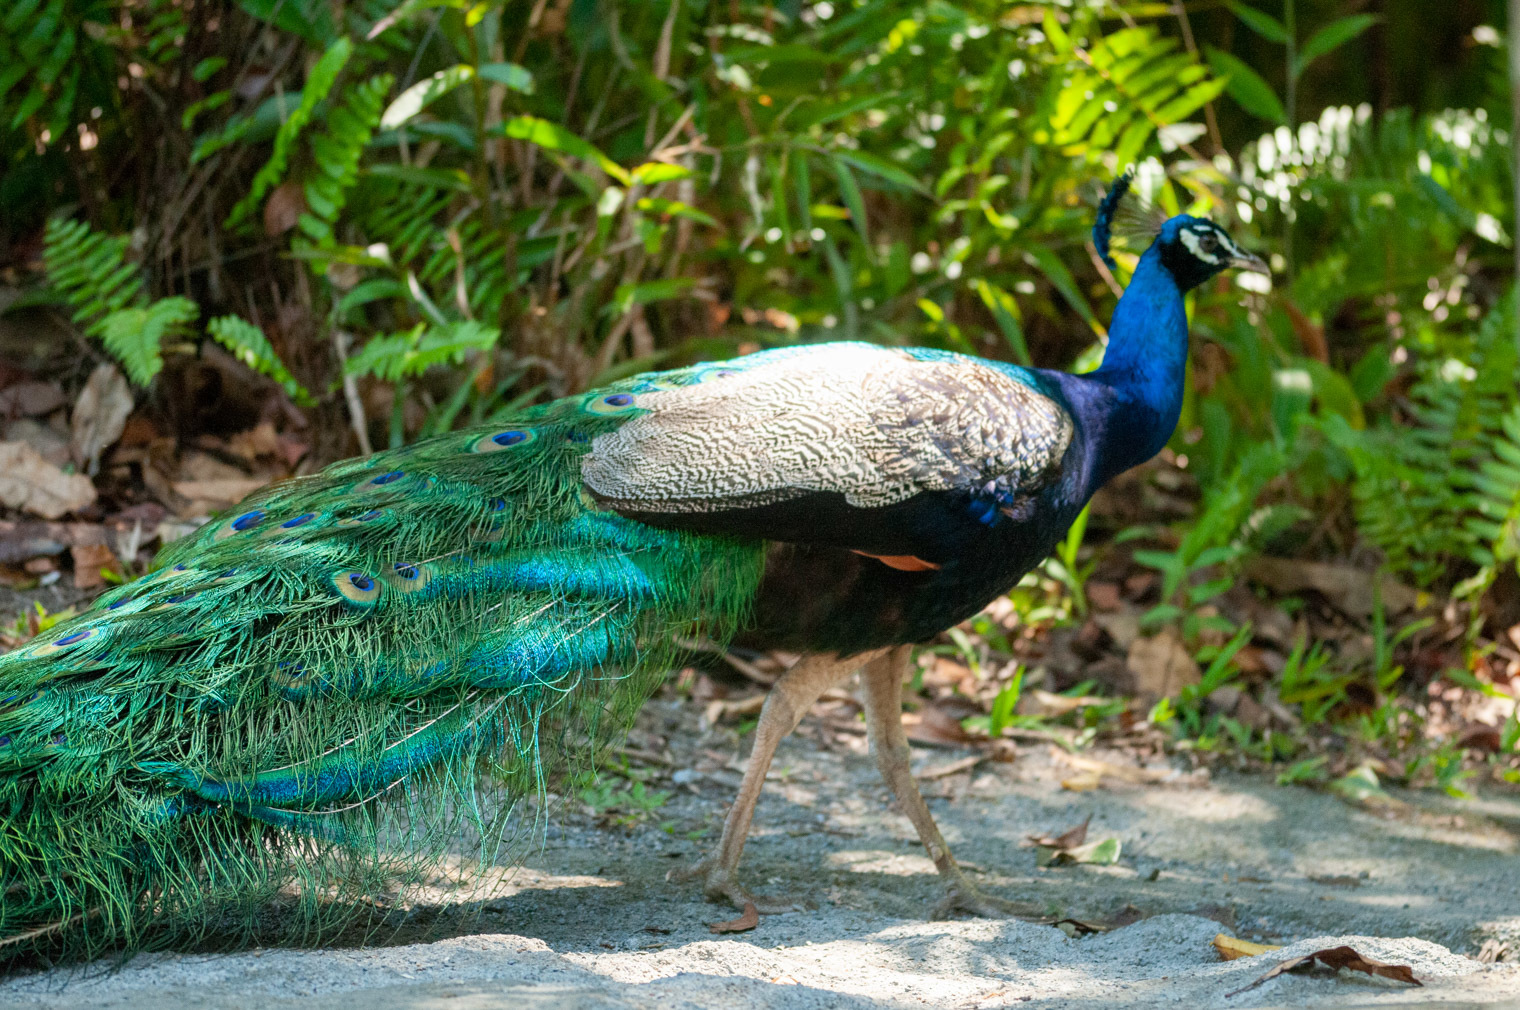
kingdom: Animalia
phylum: Chordata
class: Aves
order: Galliformes
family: Phasianidae
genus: Pavo
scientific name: Pavo cristatus
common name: Indian peafowl
